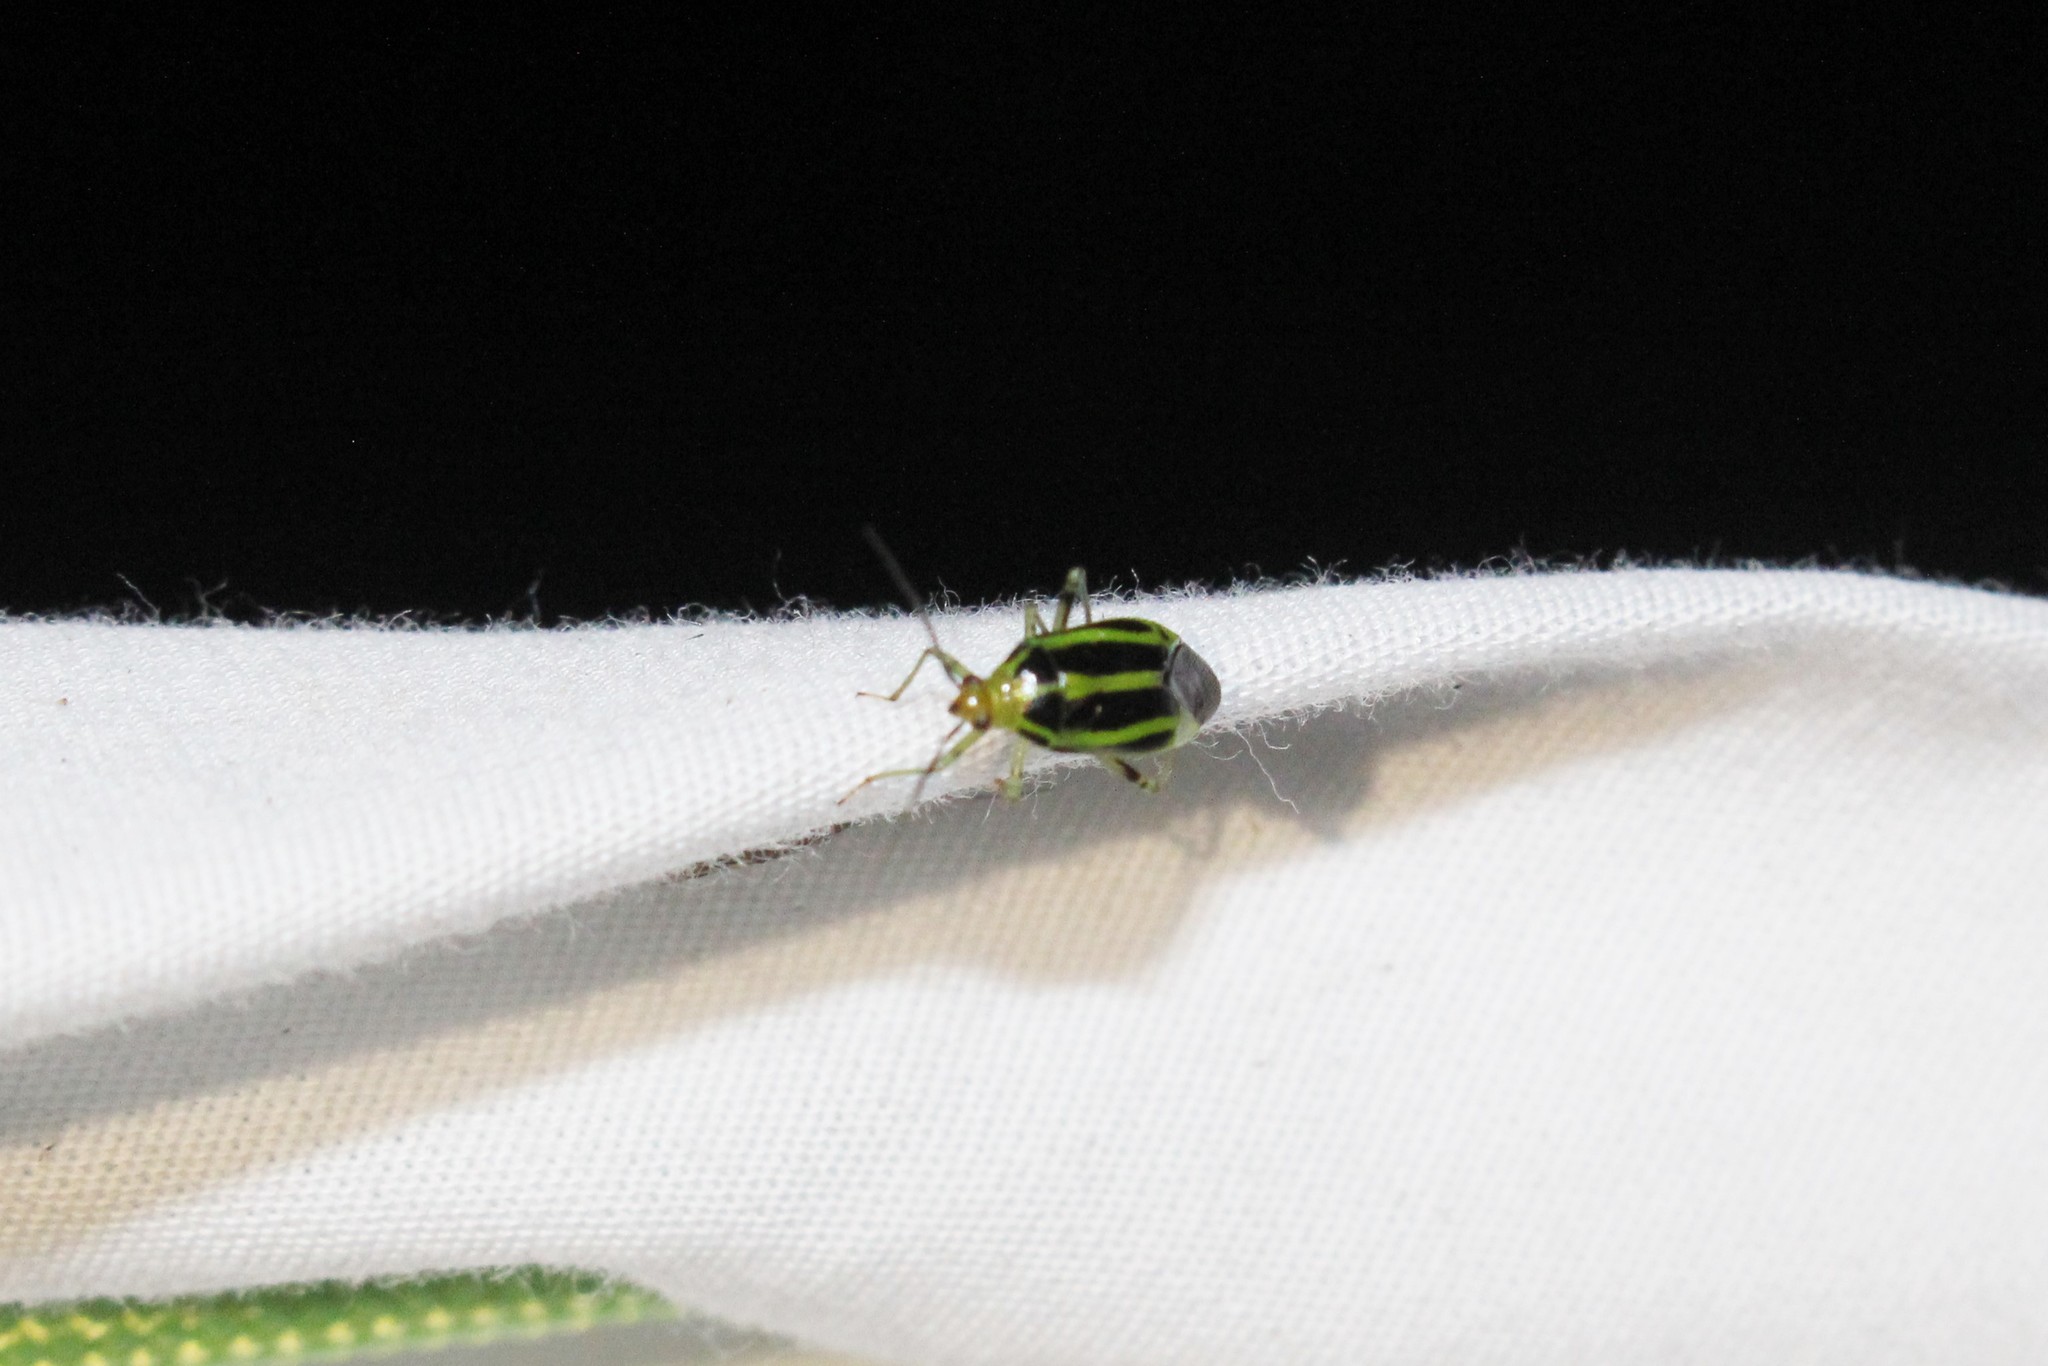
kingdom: Animalia
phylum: Arthropoda
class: Insecta
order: Hemiptera
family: Miridae
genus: Poecilocapsus
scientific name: Poecilocapsus lineatus
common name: Four-lined plant bug
